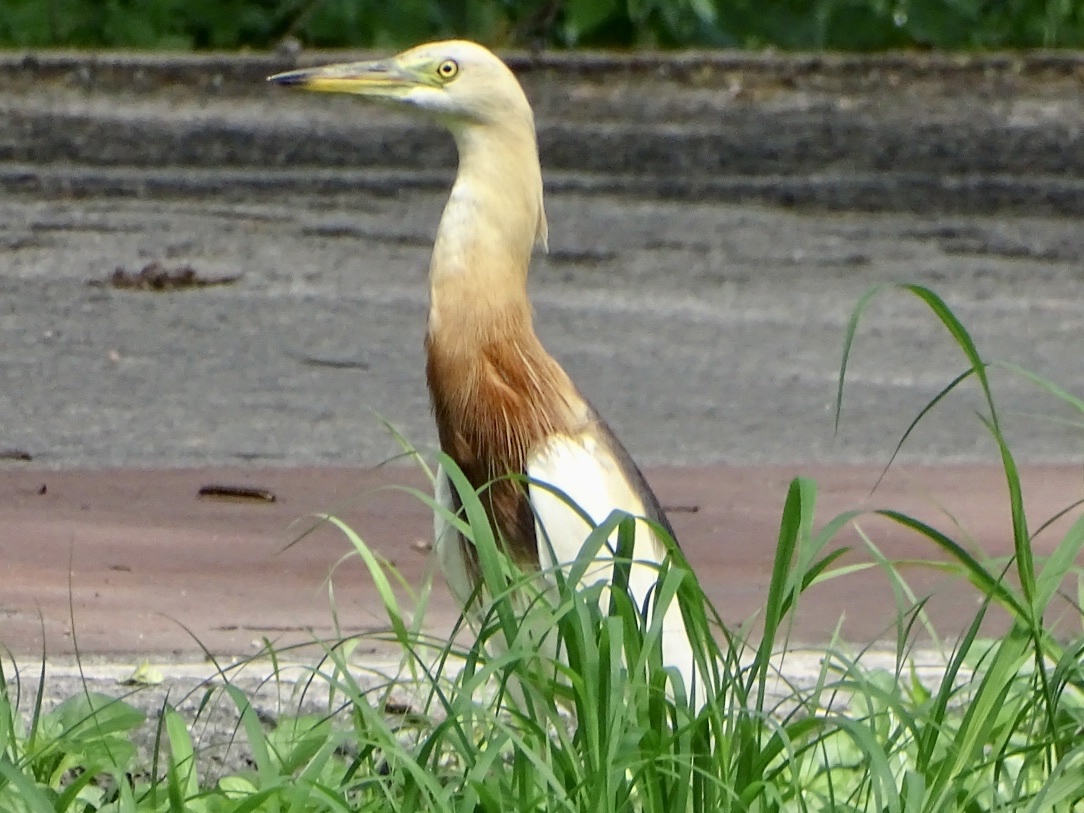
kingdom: Animalia
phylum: Chordata
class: Aves
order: Pelecaniformes
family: Ardeidae
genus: Ardeola
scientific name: Ardeola speciosa
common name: Javan pond heron
